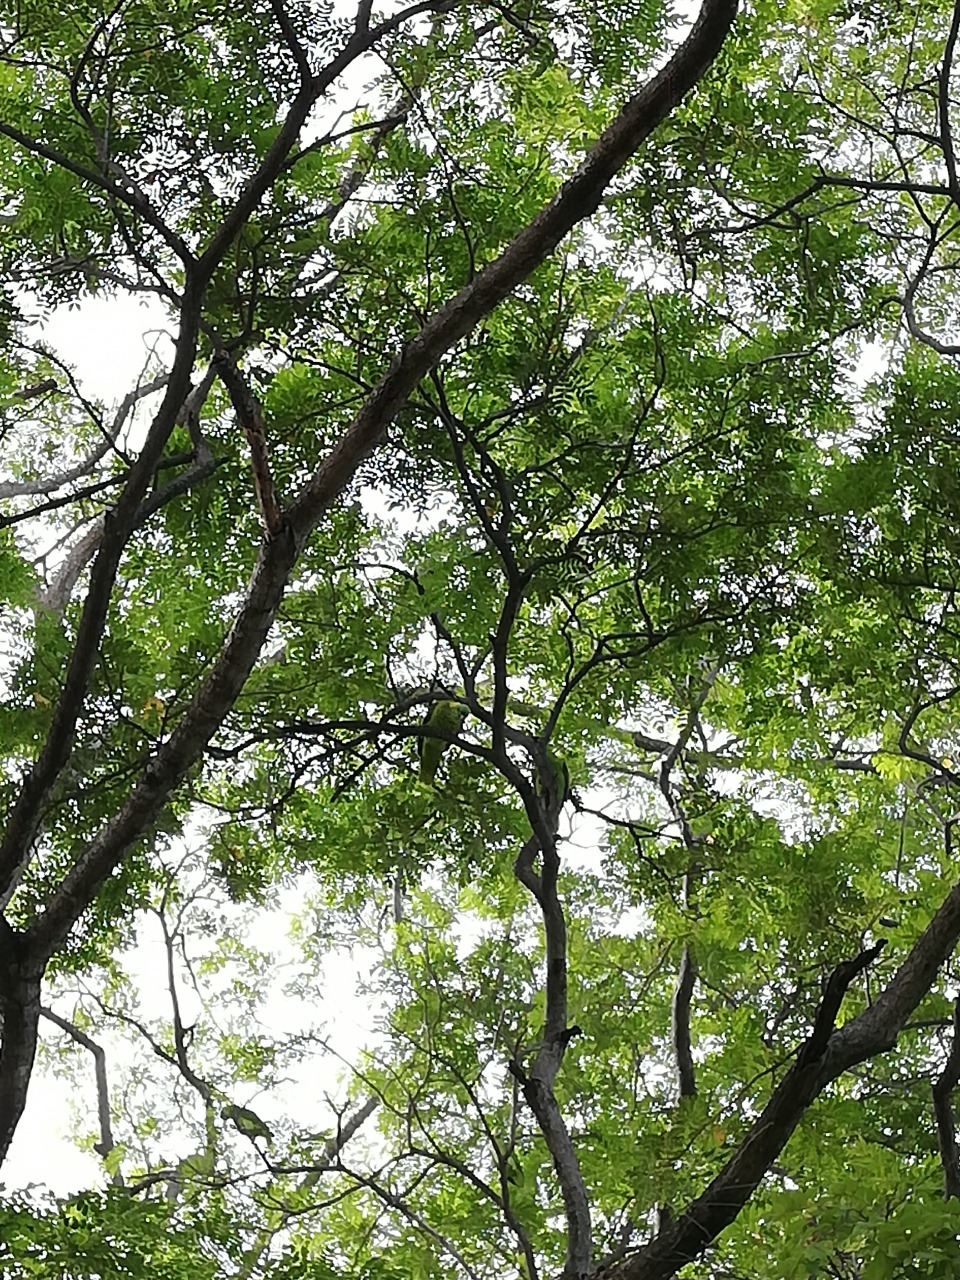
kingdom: Animalia
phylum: Chordata
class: Aves
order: Psittaciformes
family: Psittacidae
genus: Amazona
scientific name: Amazona auropalliata
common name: Yellow-naped amazon
